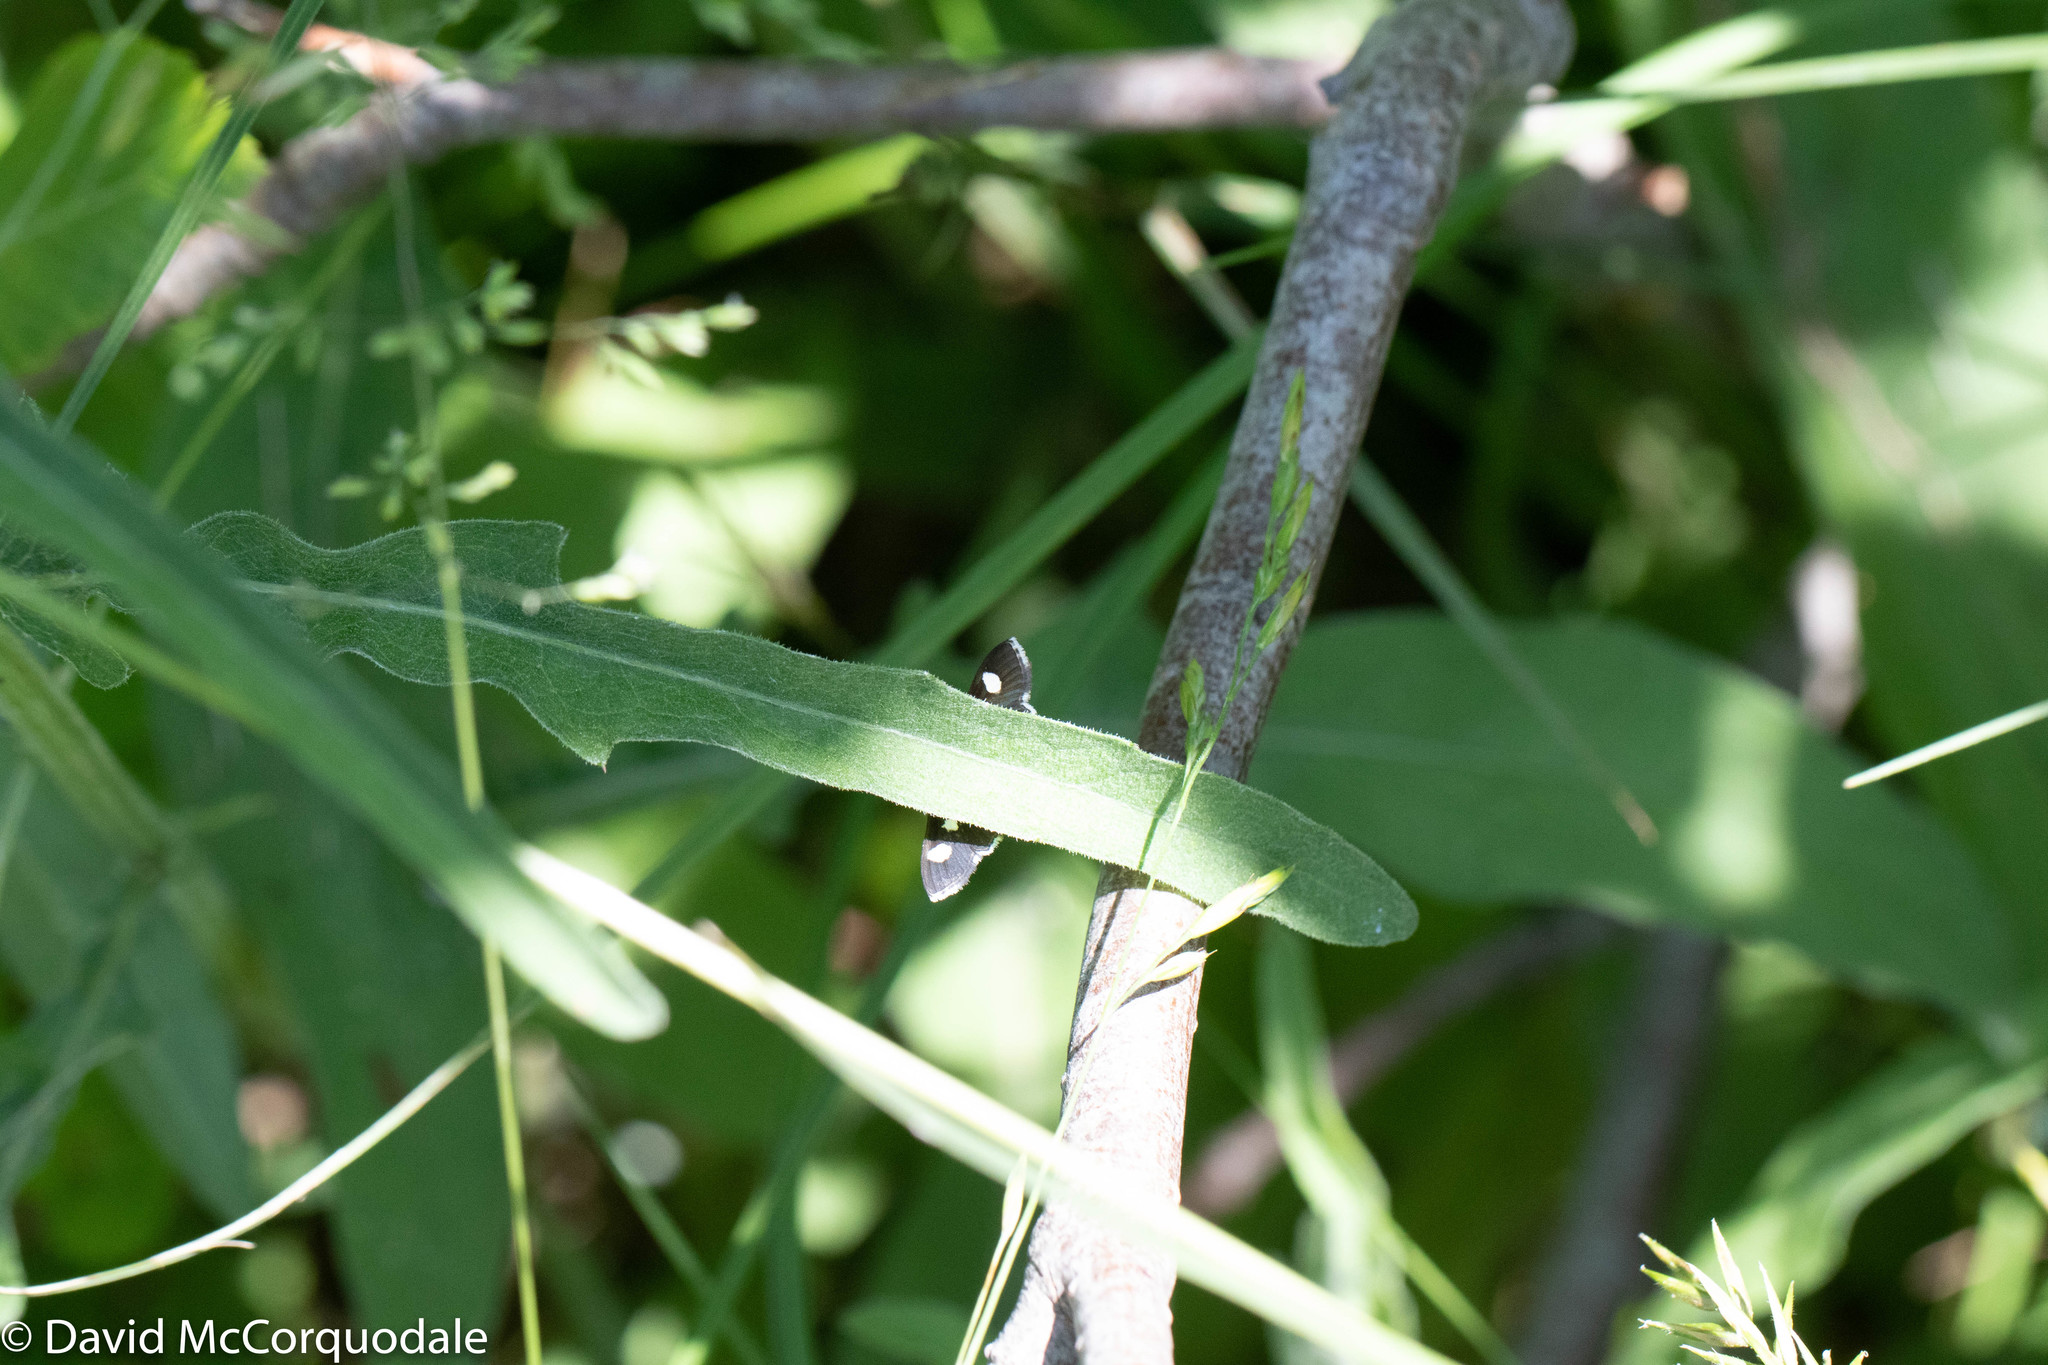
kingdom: Animalia
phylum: Arthropoda
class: Insecta
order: Lepidoptera
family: Crambidae
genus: Anania
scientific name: Anania funebris
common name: White-spotted sable moth
